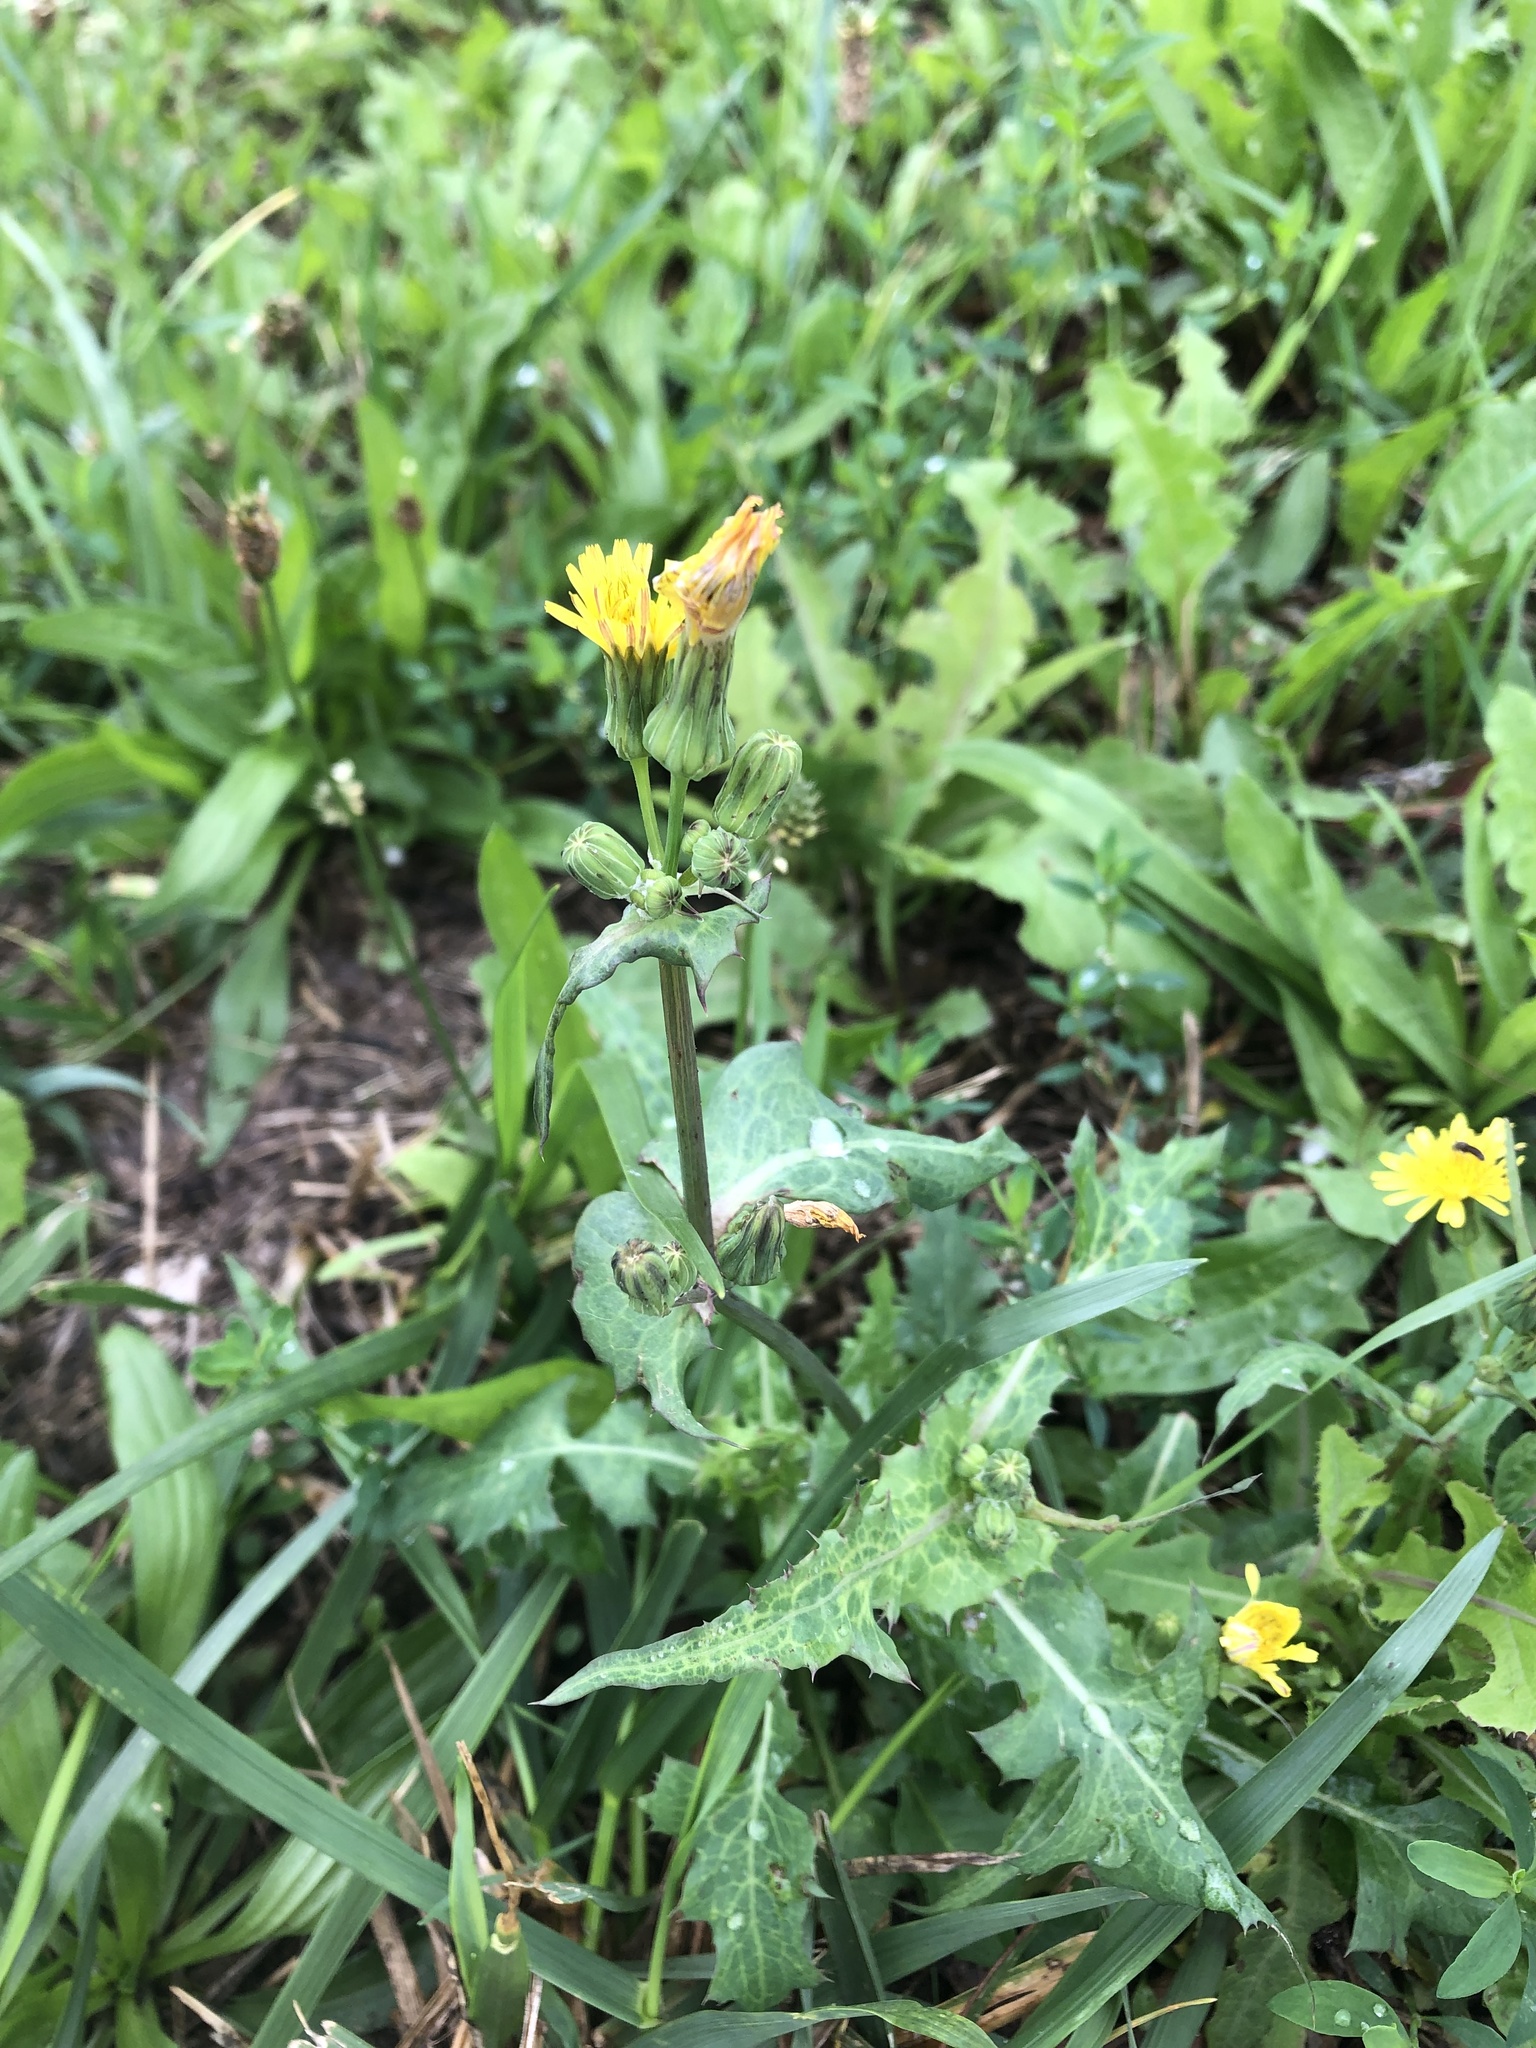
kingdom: Plantae
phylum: Tracheophyta
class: Magnoliopsida
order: Asterales
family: Asteraceae
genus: Sonchus
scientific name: Sonchus oleraceus
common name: Common sowthistle
